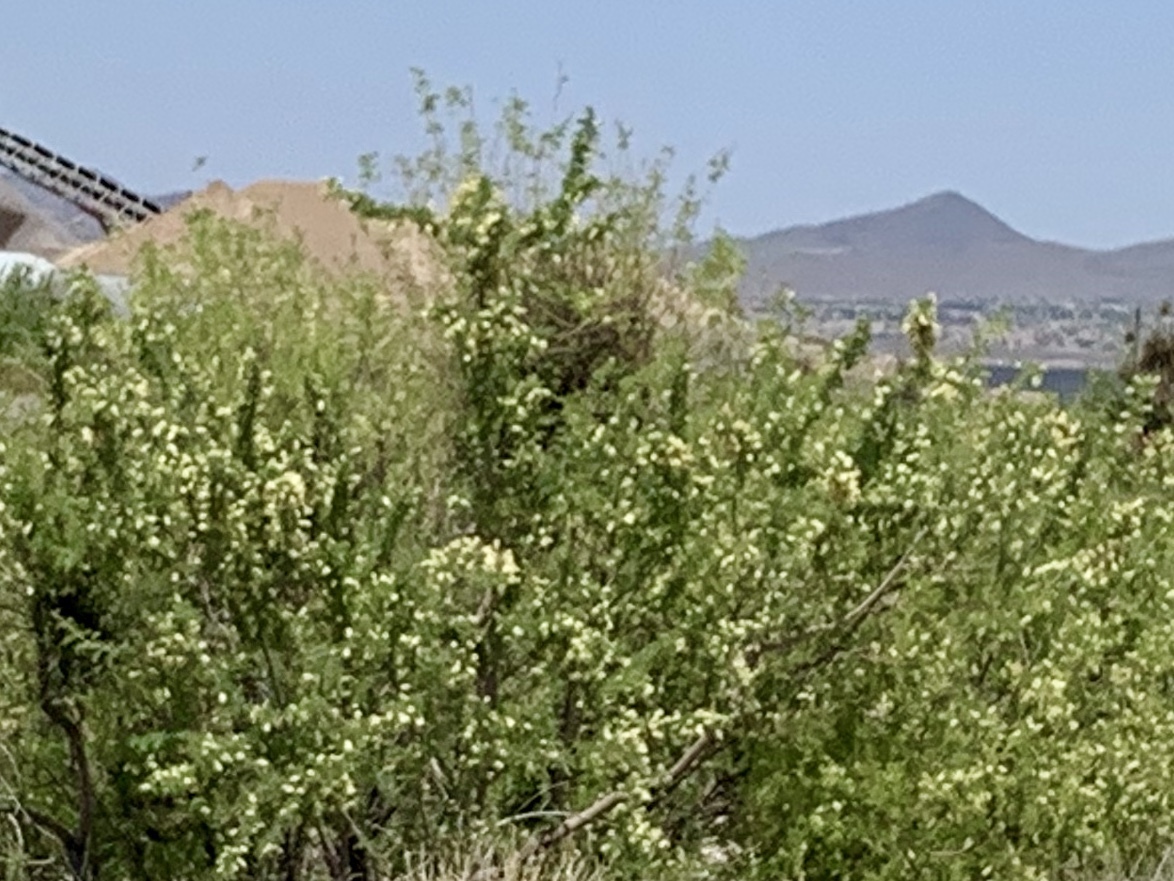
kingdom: Plantae
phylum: Tracheophyta
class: Magnoliopsida
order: Fabales
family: Fabaceae
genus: Senegalia
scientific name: Senegalia greggii
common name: Texas-mimosa
